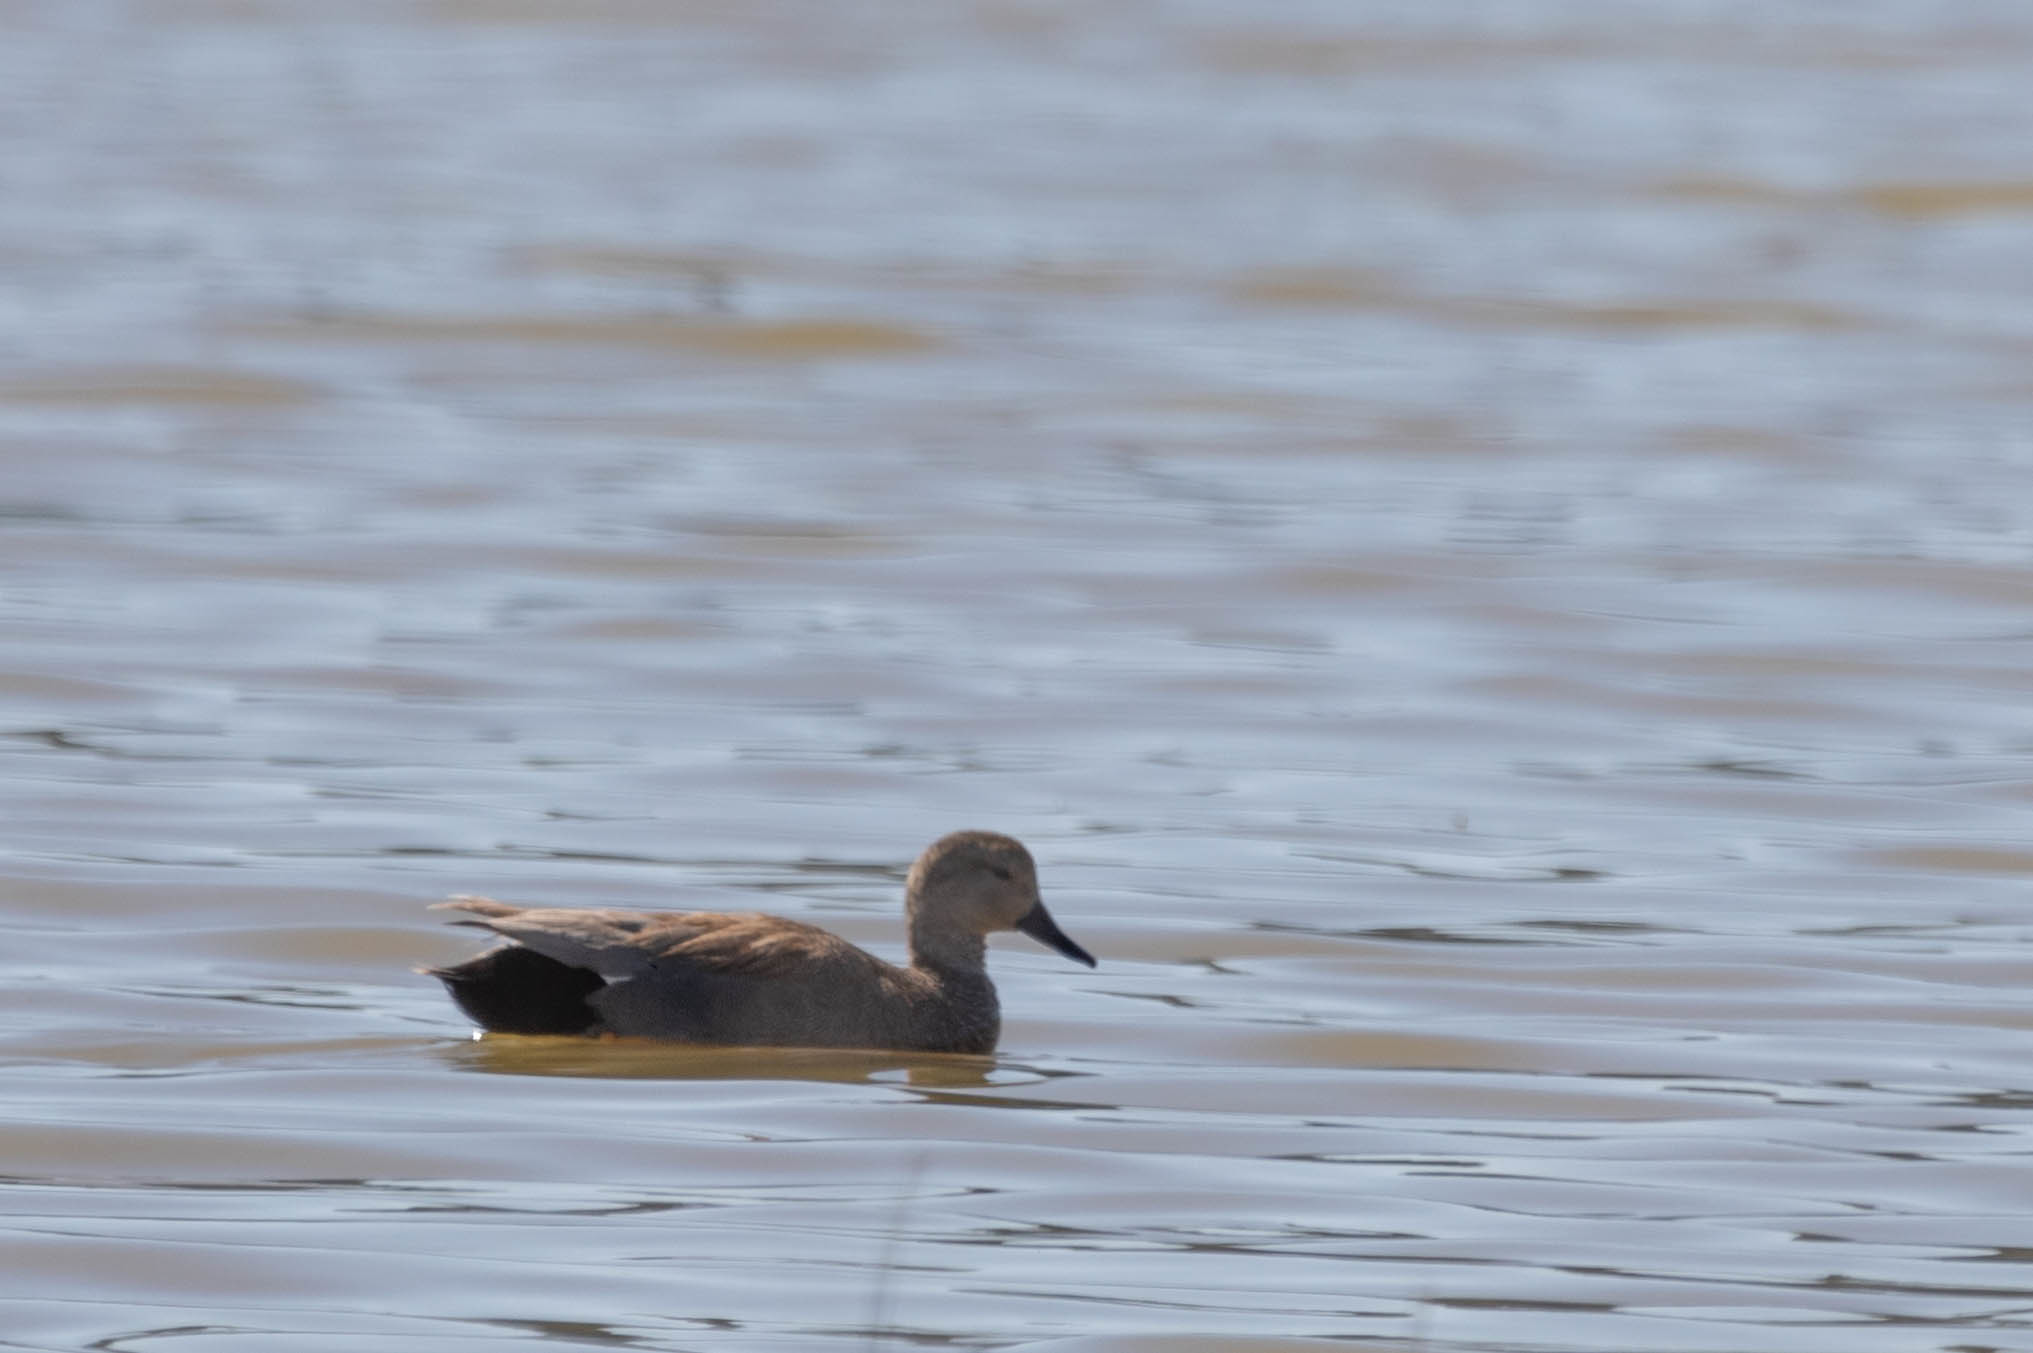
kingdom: Animalia
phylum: Chordata
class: Aves
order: Anseriformes
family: Anatidae
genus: Mareca
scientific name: Mareca strepera
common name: Gadwall
